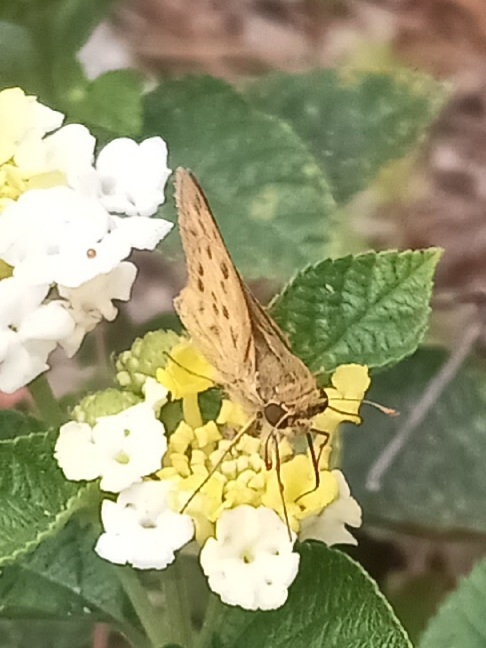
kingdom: Animalia
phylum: Arthropoda
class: Insecta
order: Lepidoptera
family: Hesperiidae
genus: Hylephila
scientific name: Hylephila phyleus
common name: Fiery skipper
